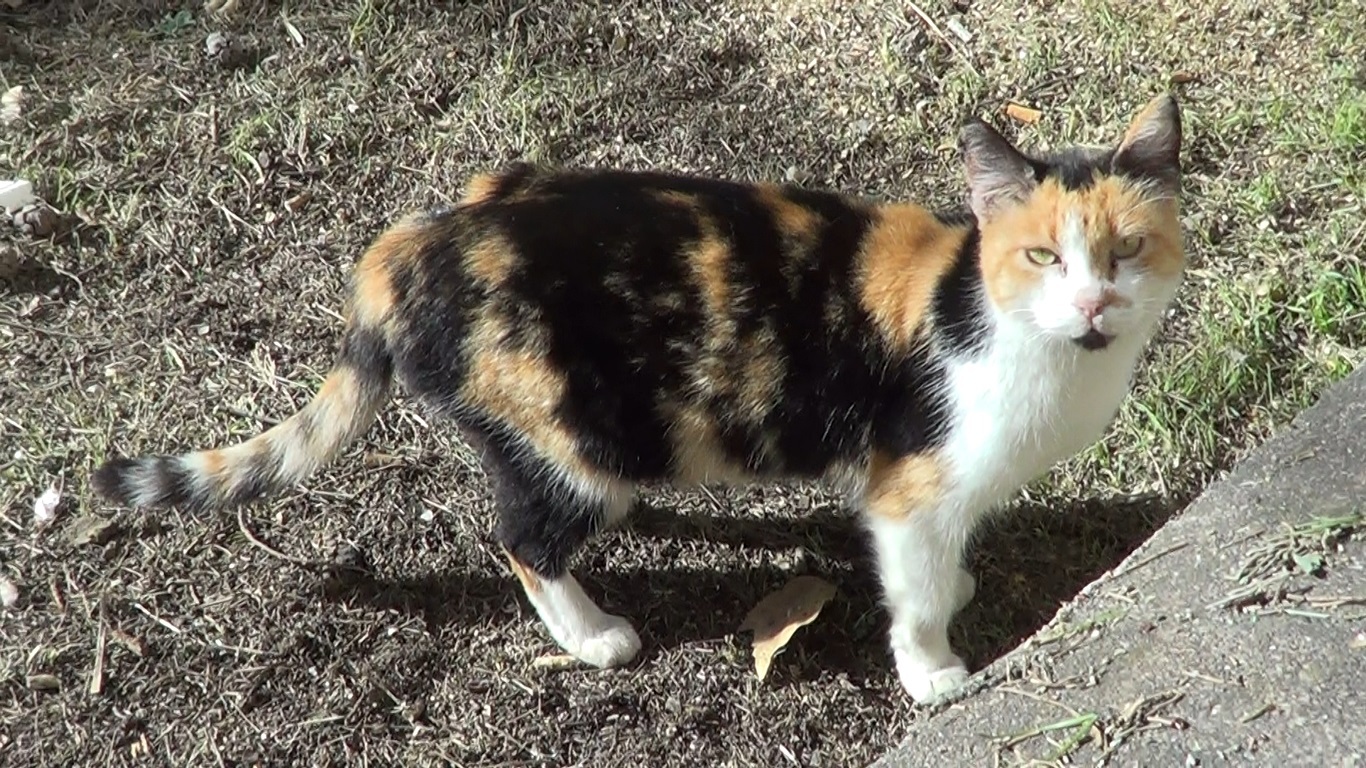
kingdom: Animalia
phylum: Chordata
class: Mammalia
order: Carnivora
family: Felidae
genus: Felis
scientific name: Felis catus
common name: Domestic cat
